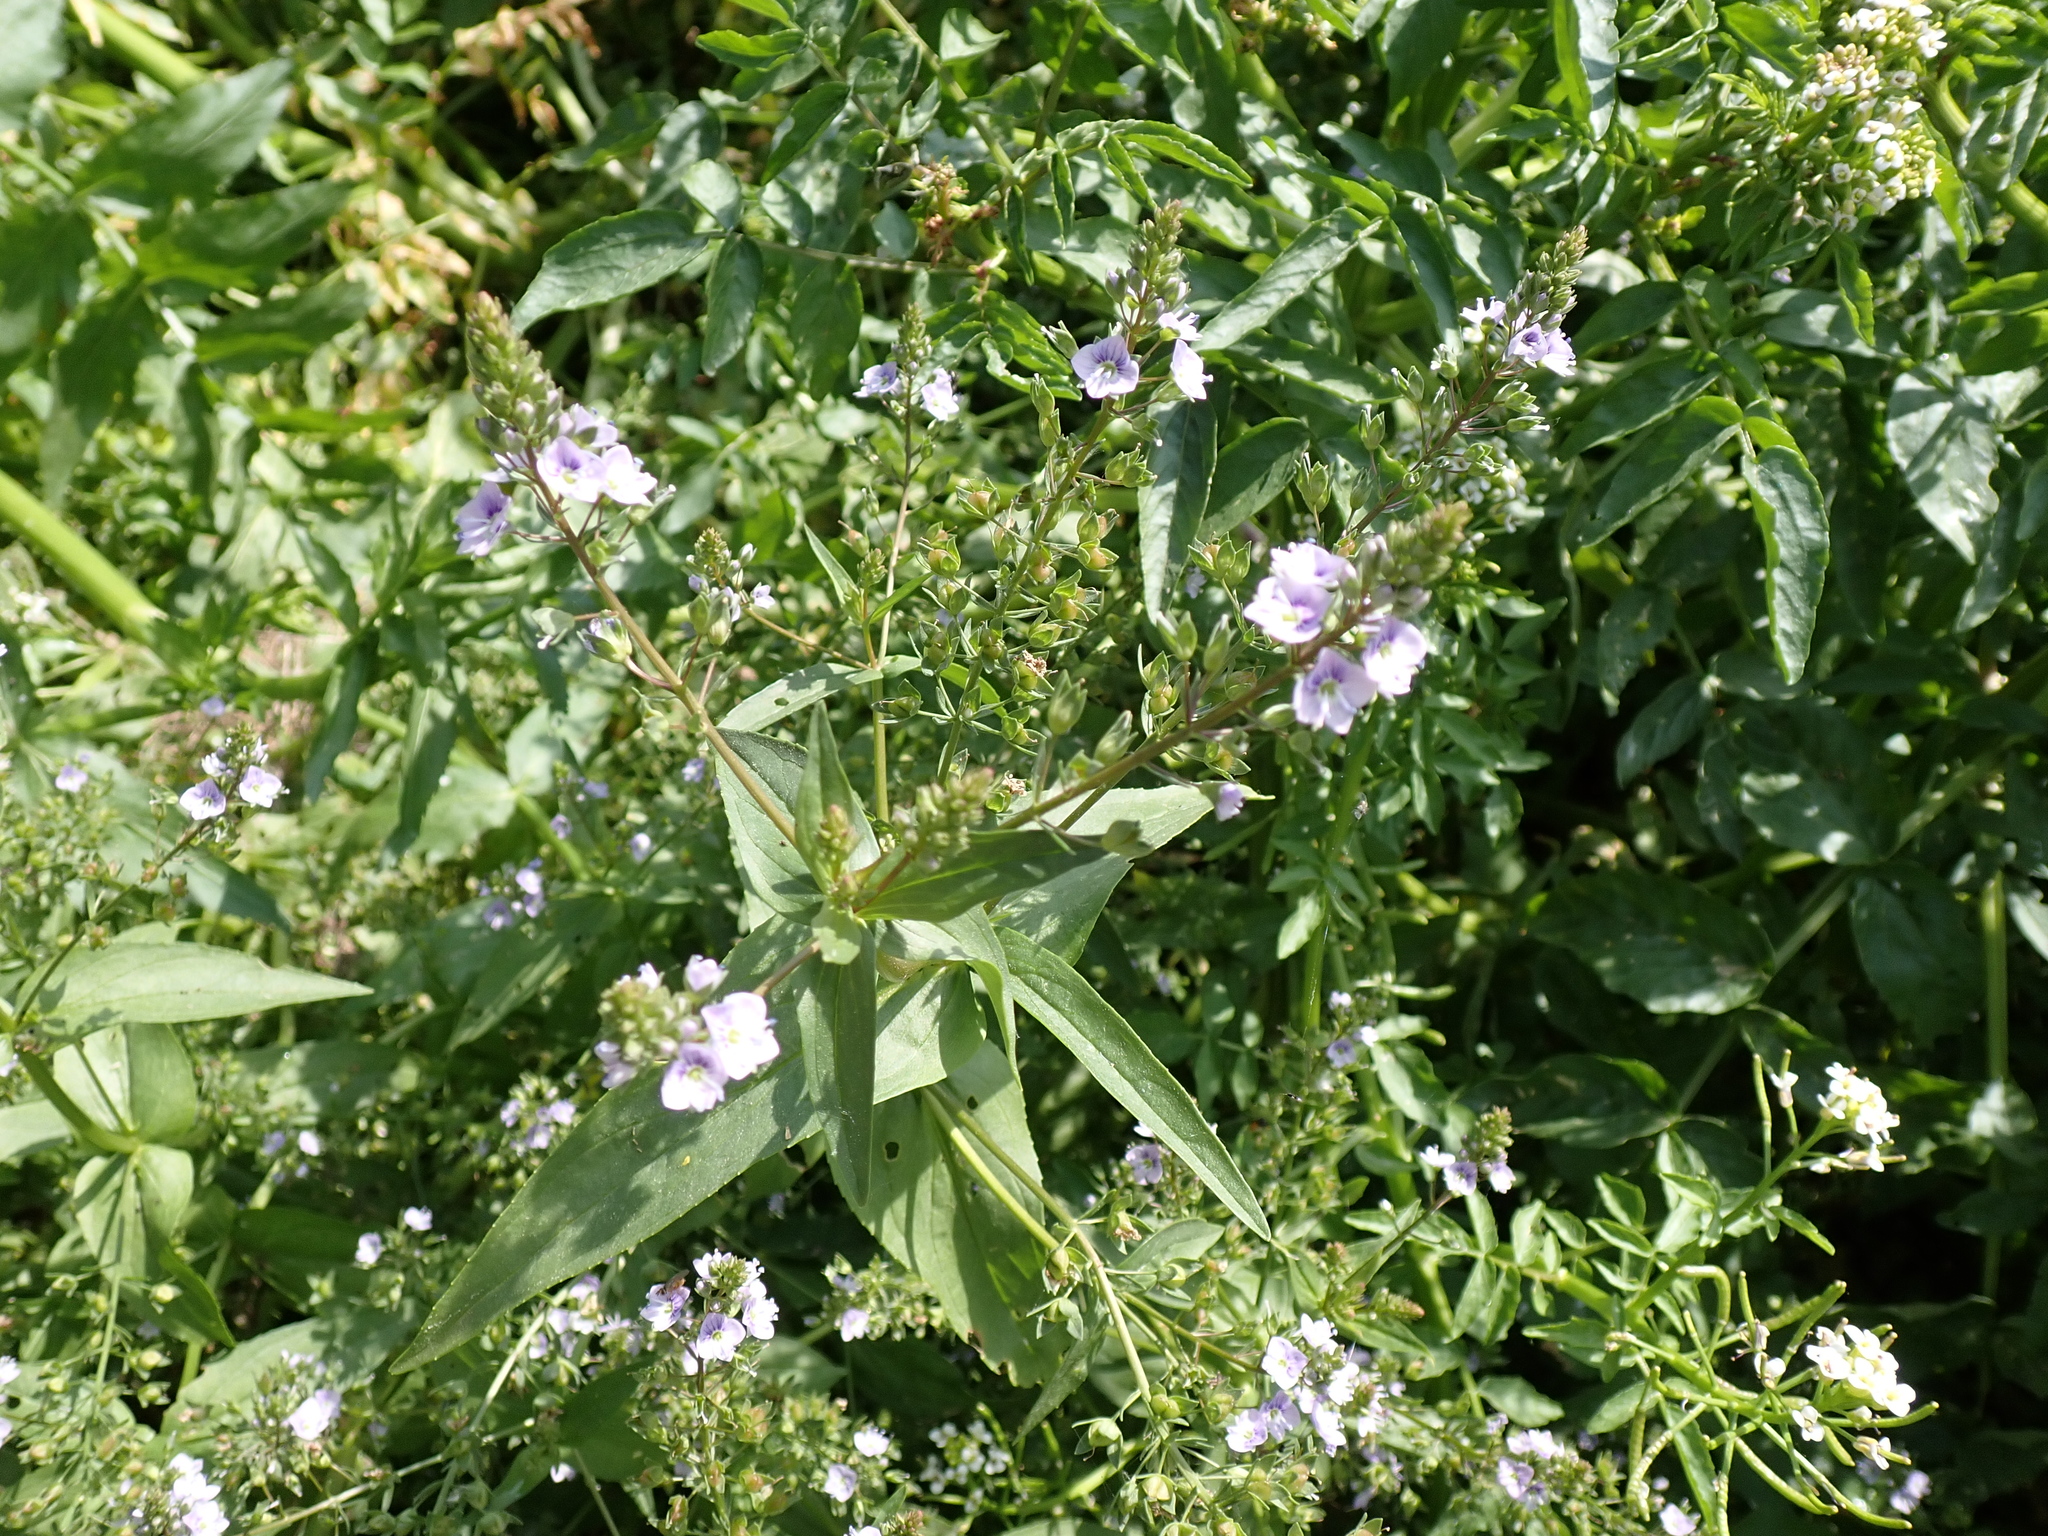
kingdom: Plantae
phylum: Tracheophyta
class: Magnoliopsida
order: Lamiales
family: Plantaginaceae
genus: Veronica
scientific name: Veronica anagallis-aquatica
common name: Water speedwell
